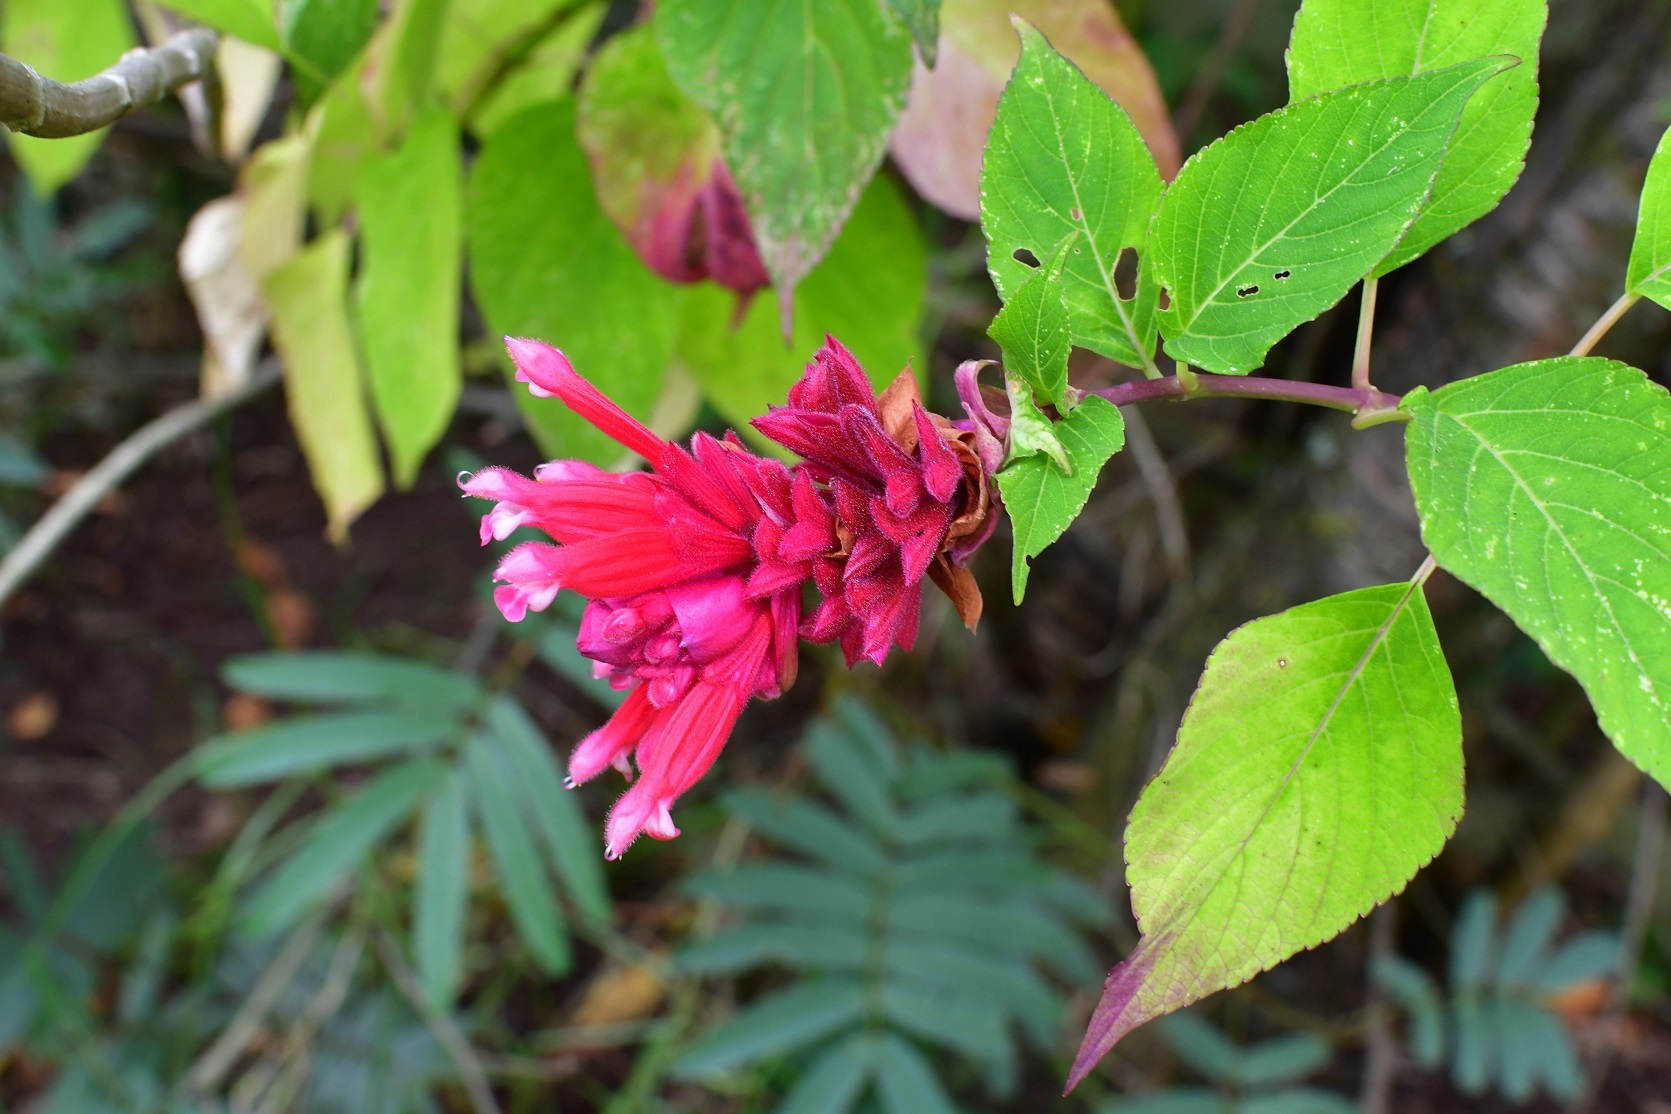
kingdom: Plantae
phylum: Tracheophyta
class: Magnoliopsida
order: Lamiales
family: Lamiaceae
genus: Salvia
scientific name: Salvia wagneriana
